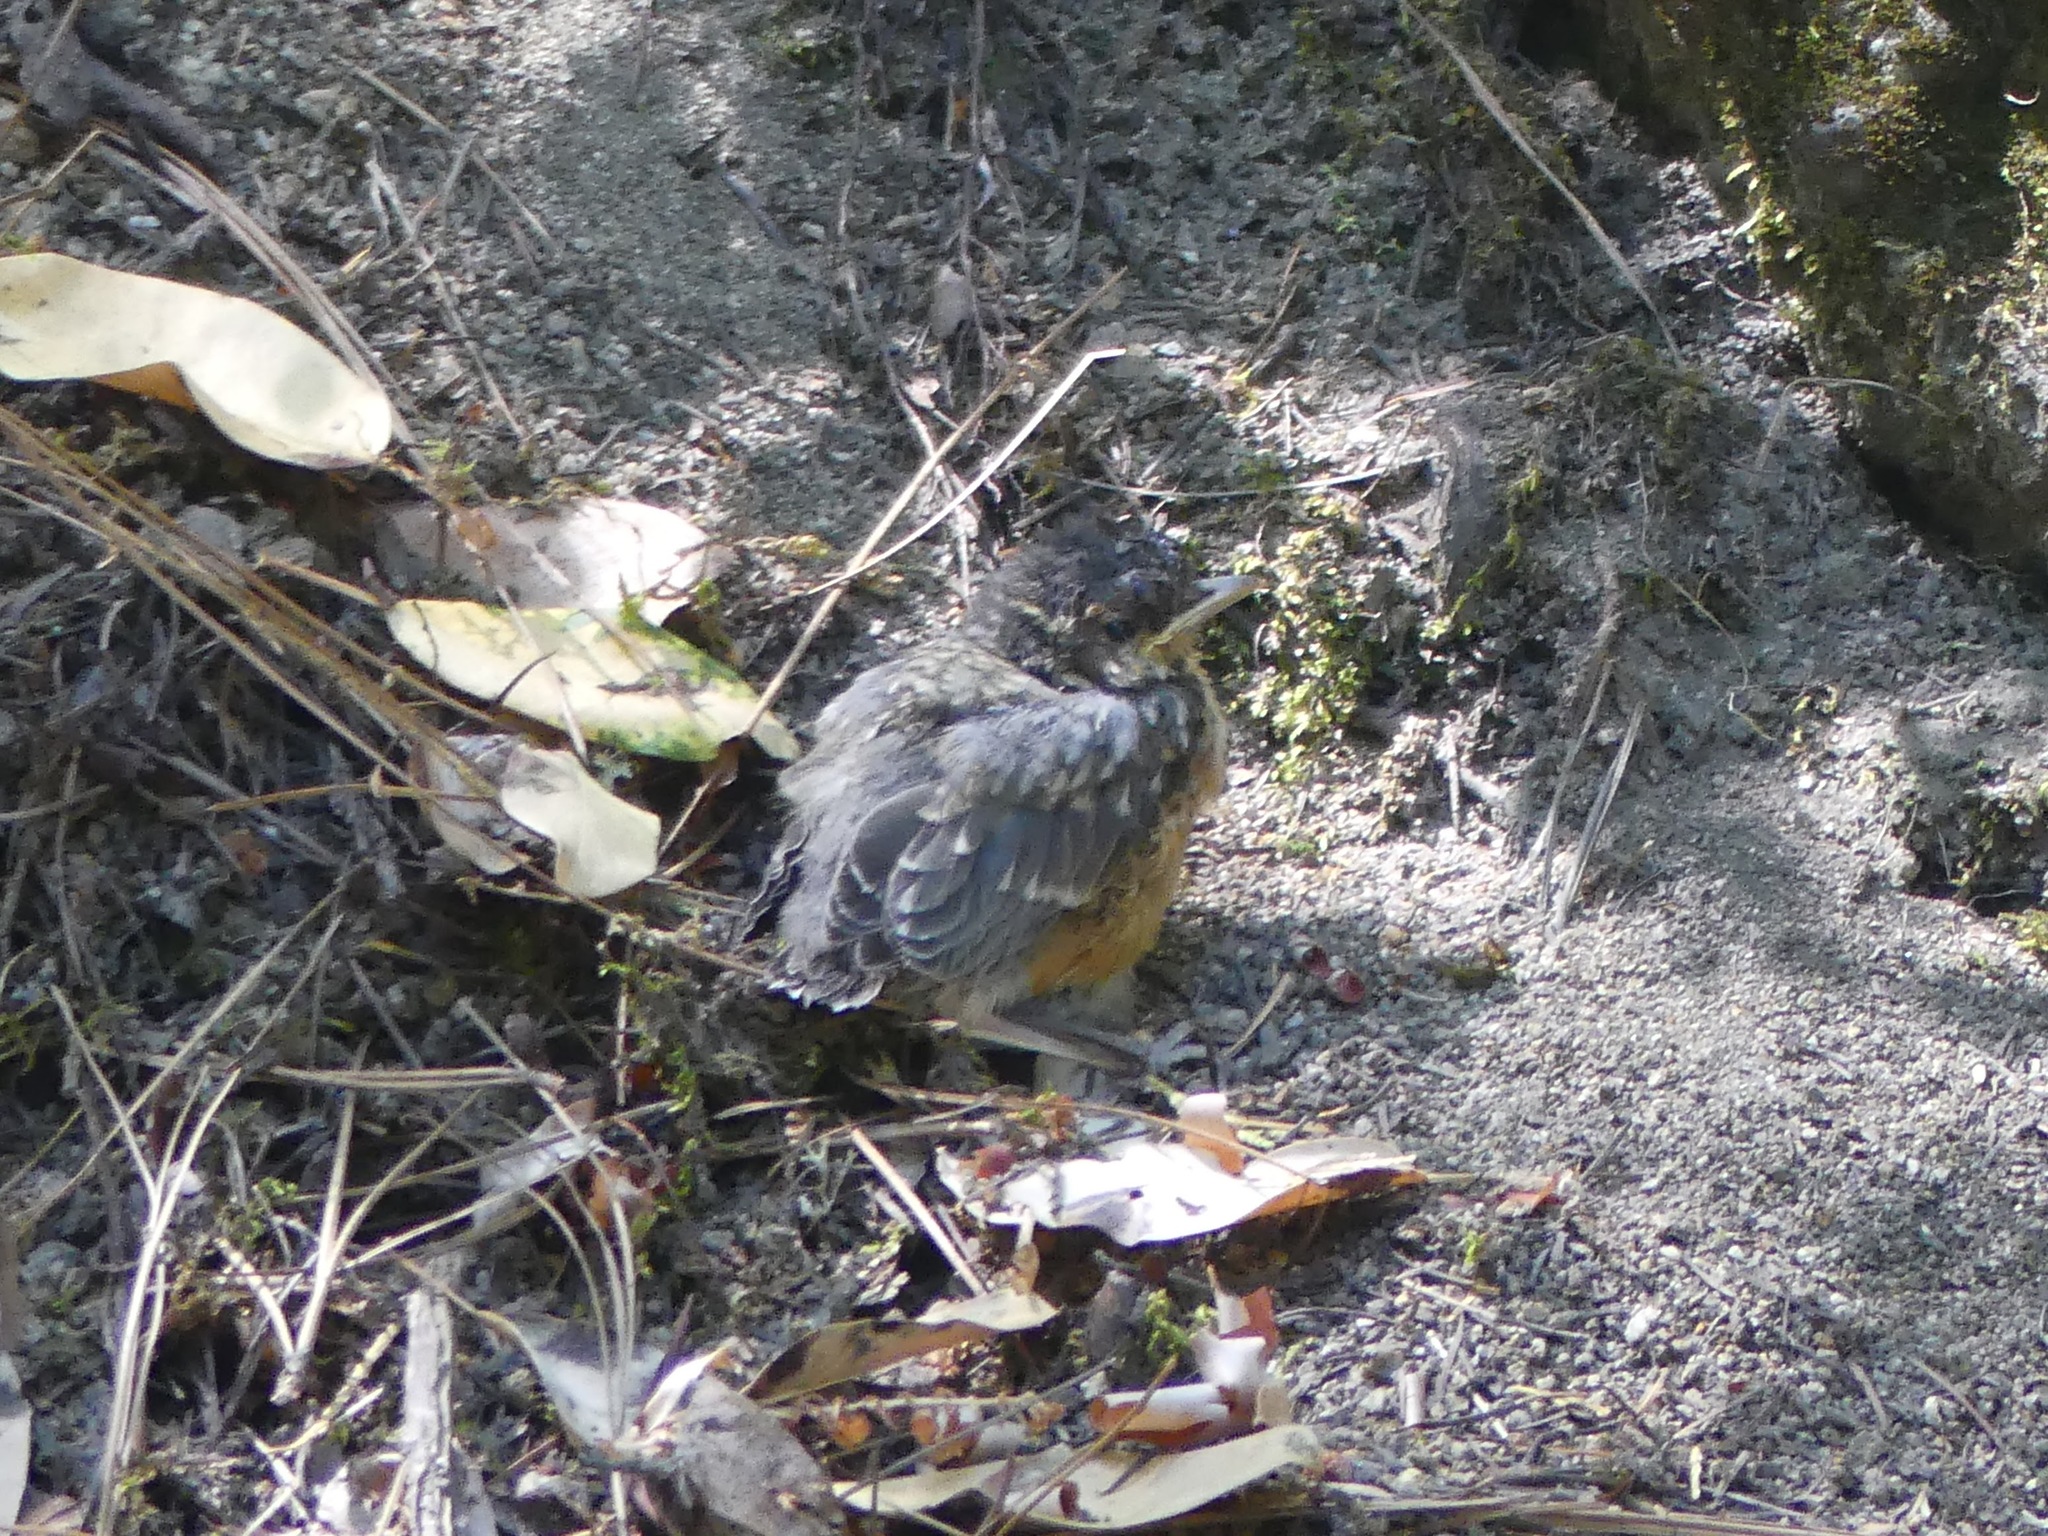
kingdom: Animalia
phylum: Chordata
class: Aves
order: Passeriformes
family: Turdidae
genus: Turdus
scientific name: Turdus migratorius
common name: American robin
